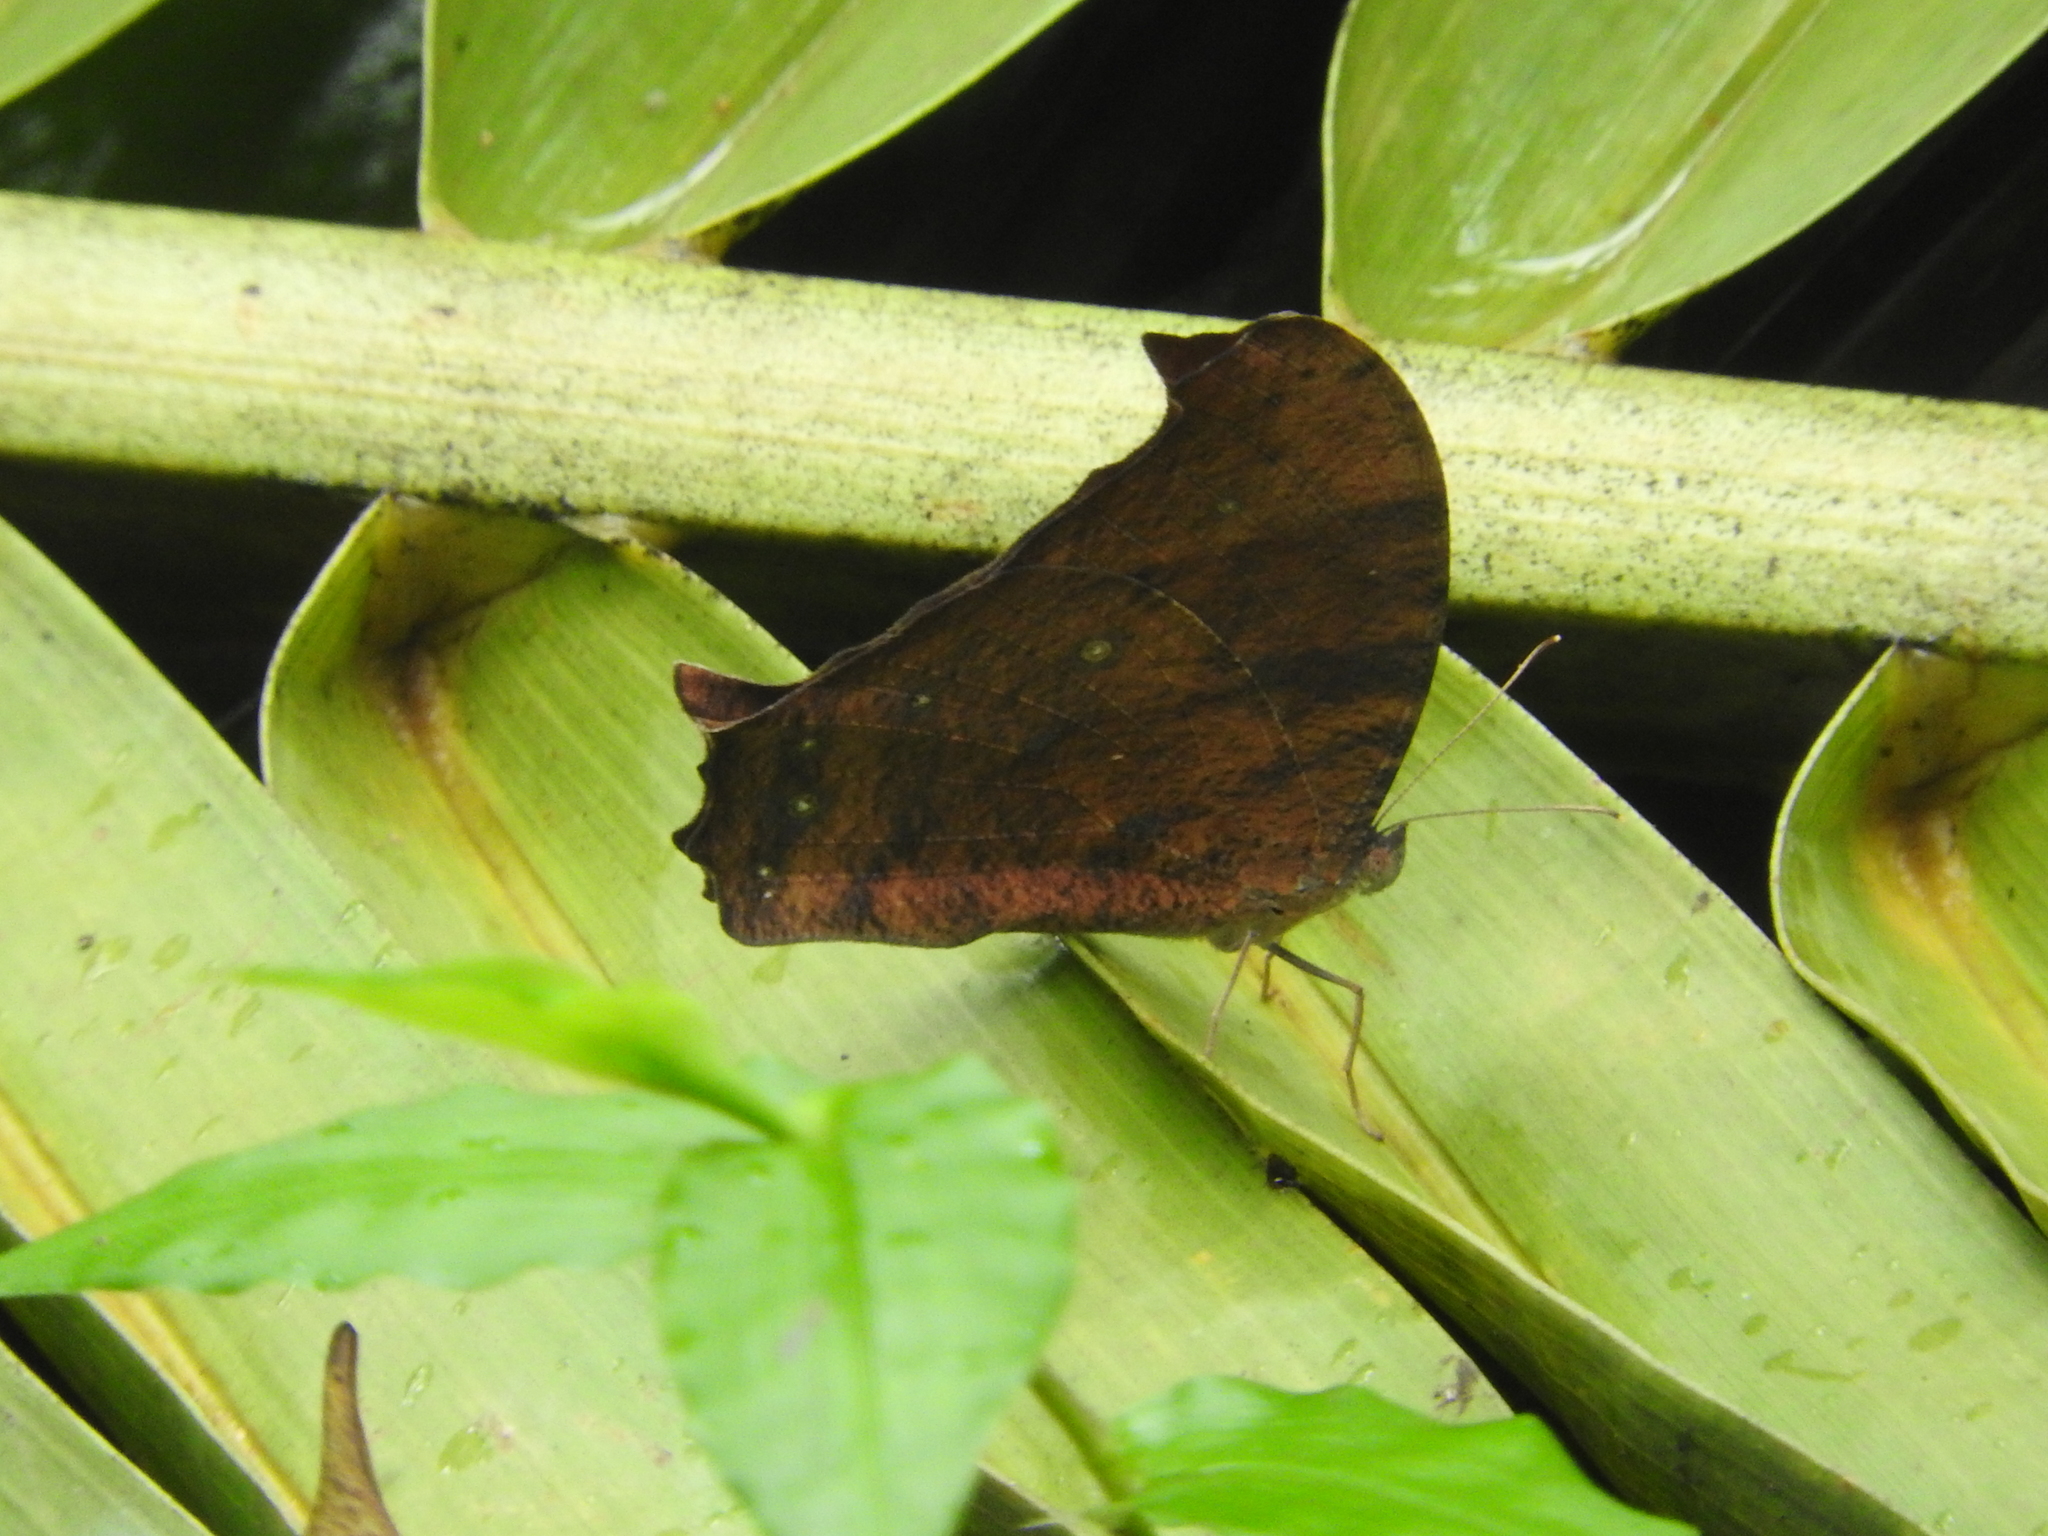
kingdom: Animalia
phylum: Arthropoda
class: Insecta
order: Lepidoptera
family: Nymphalidae
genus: Melanitis
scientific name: Melanitis leda
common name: Twilight brown
